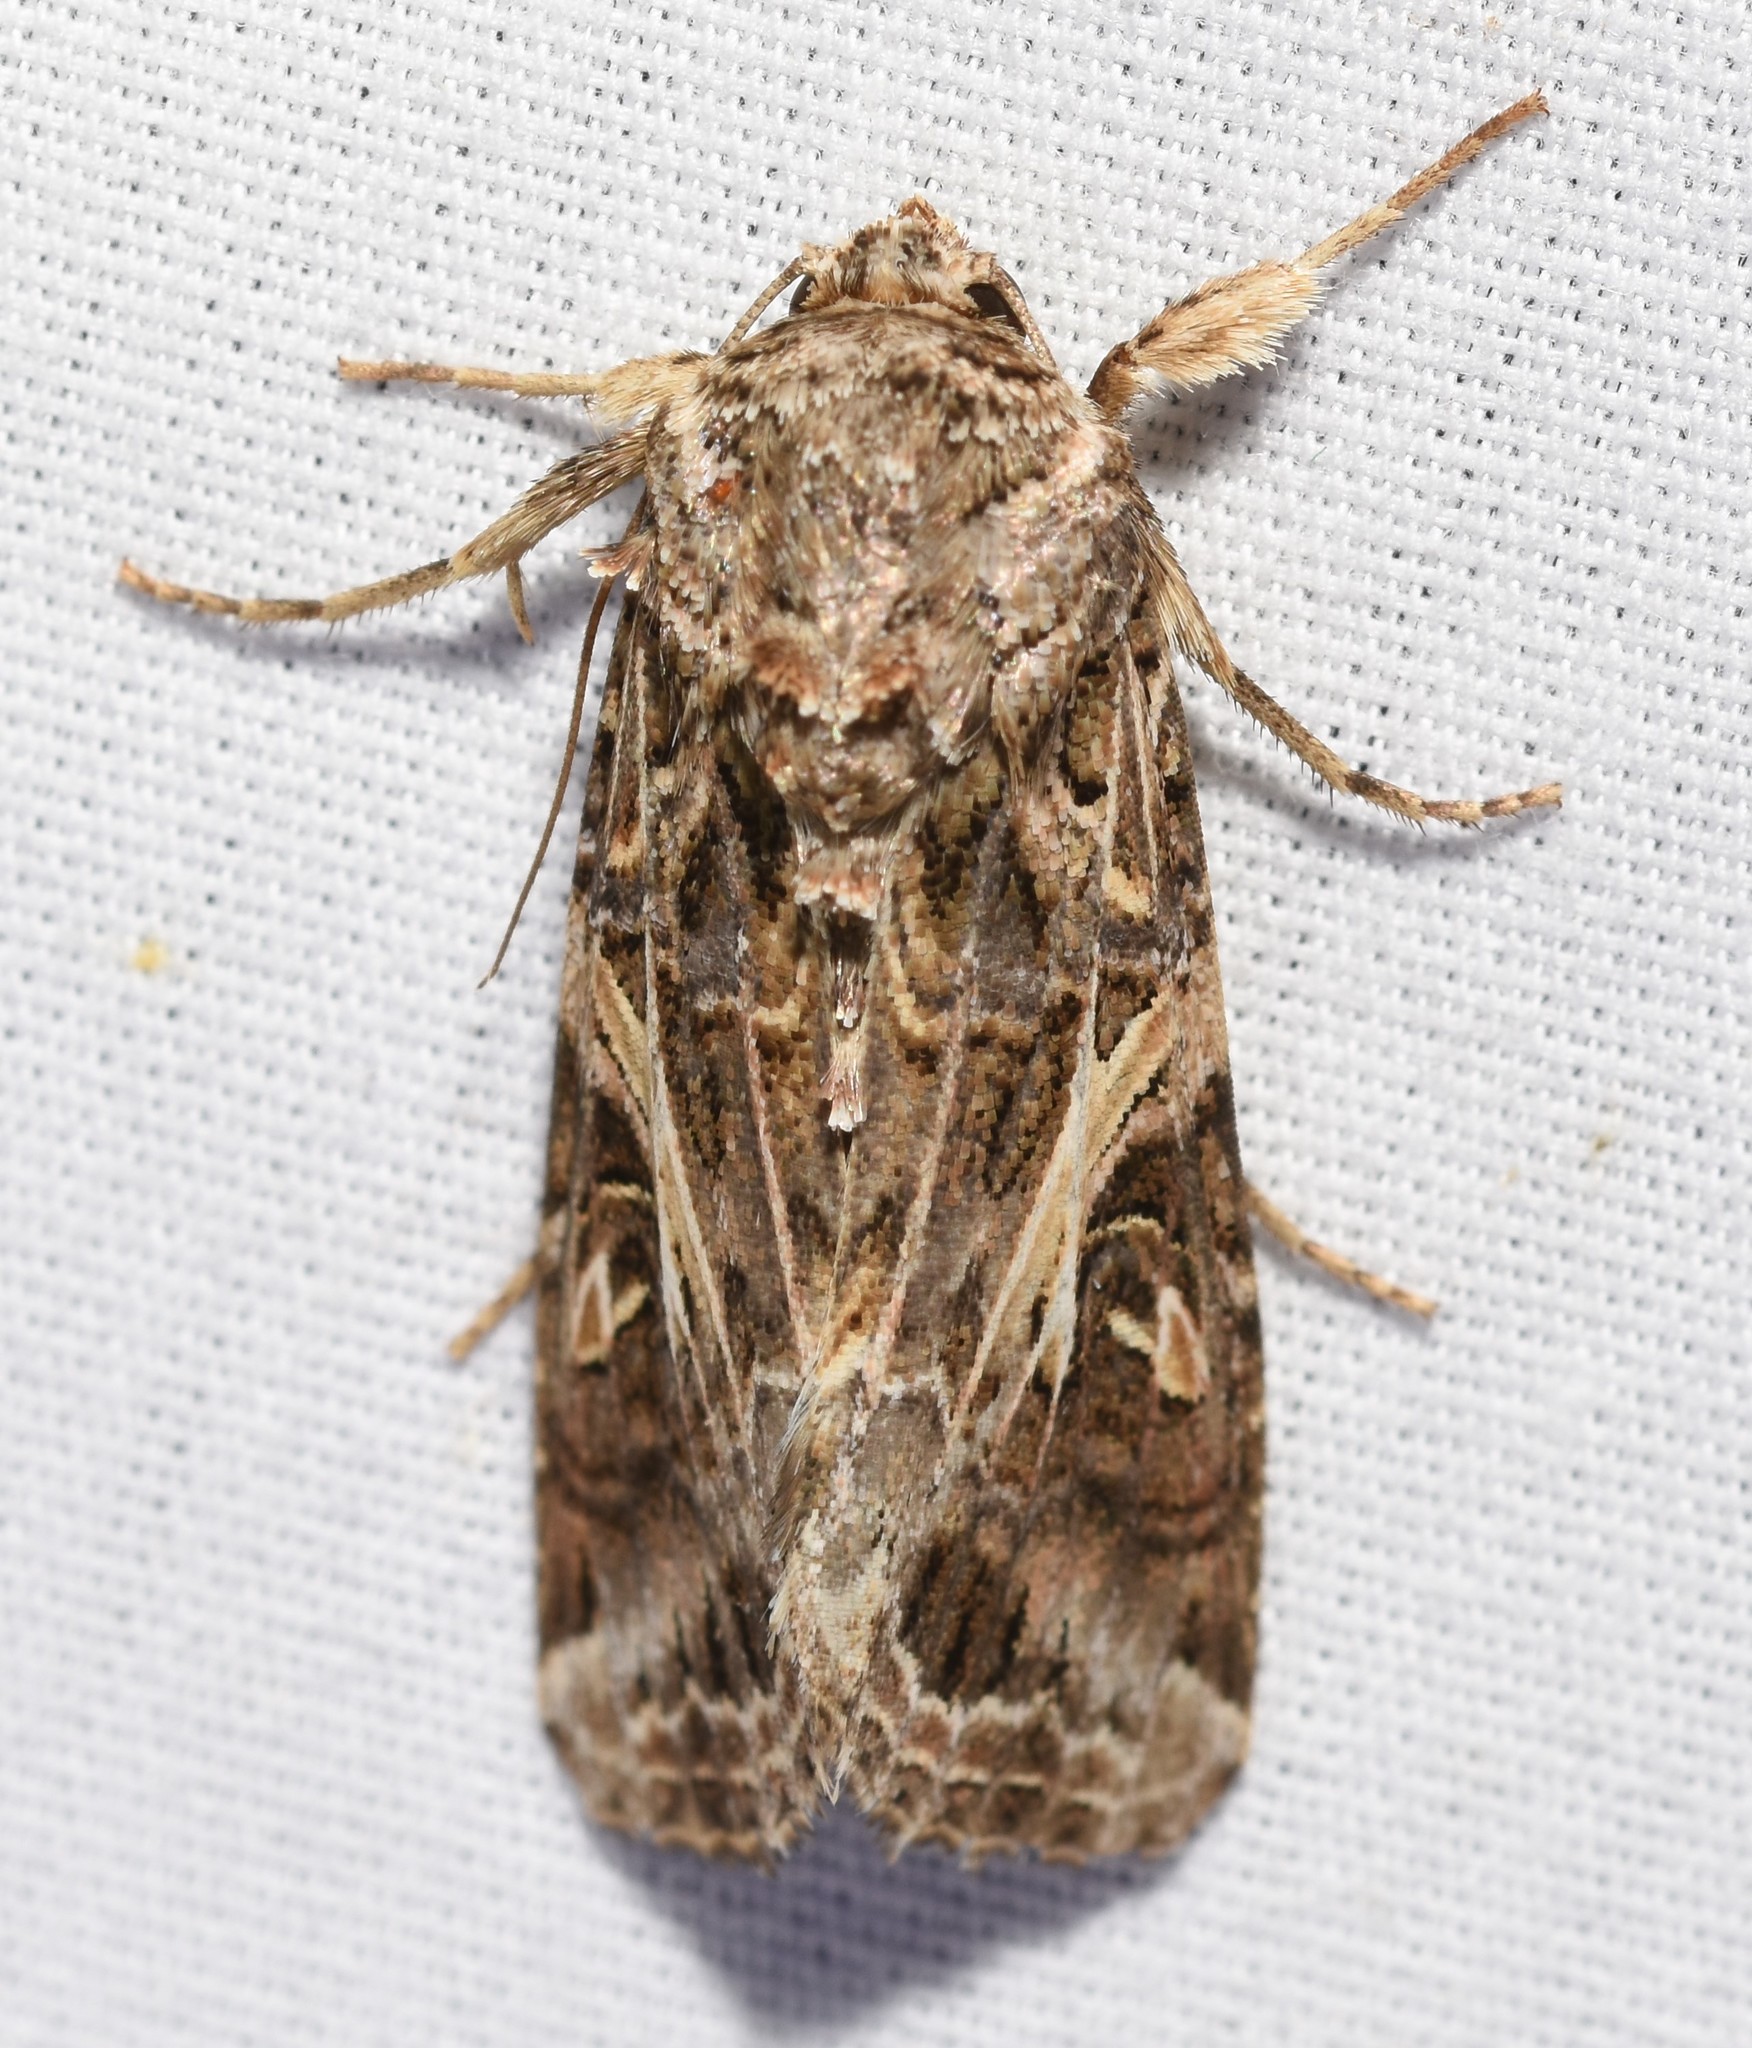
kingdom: Animalia
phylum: Arthropoda
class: Insecta
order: Lepidoptera
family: Noctuidae
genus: Spodoptera
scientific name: Spodoptera ornithogalli
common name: Yellow-striped armyworm
